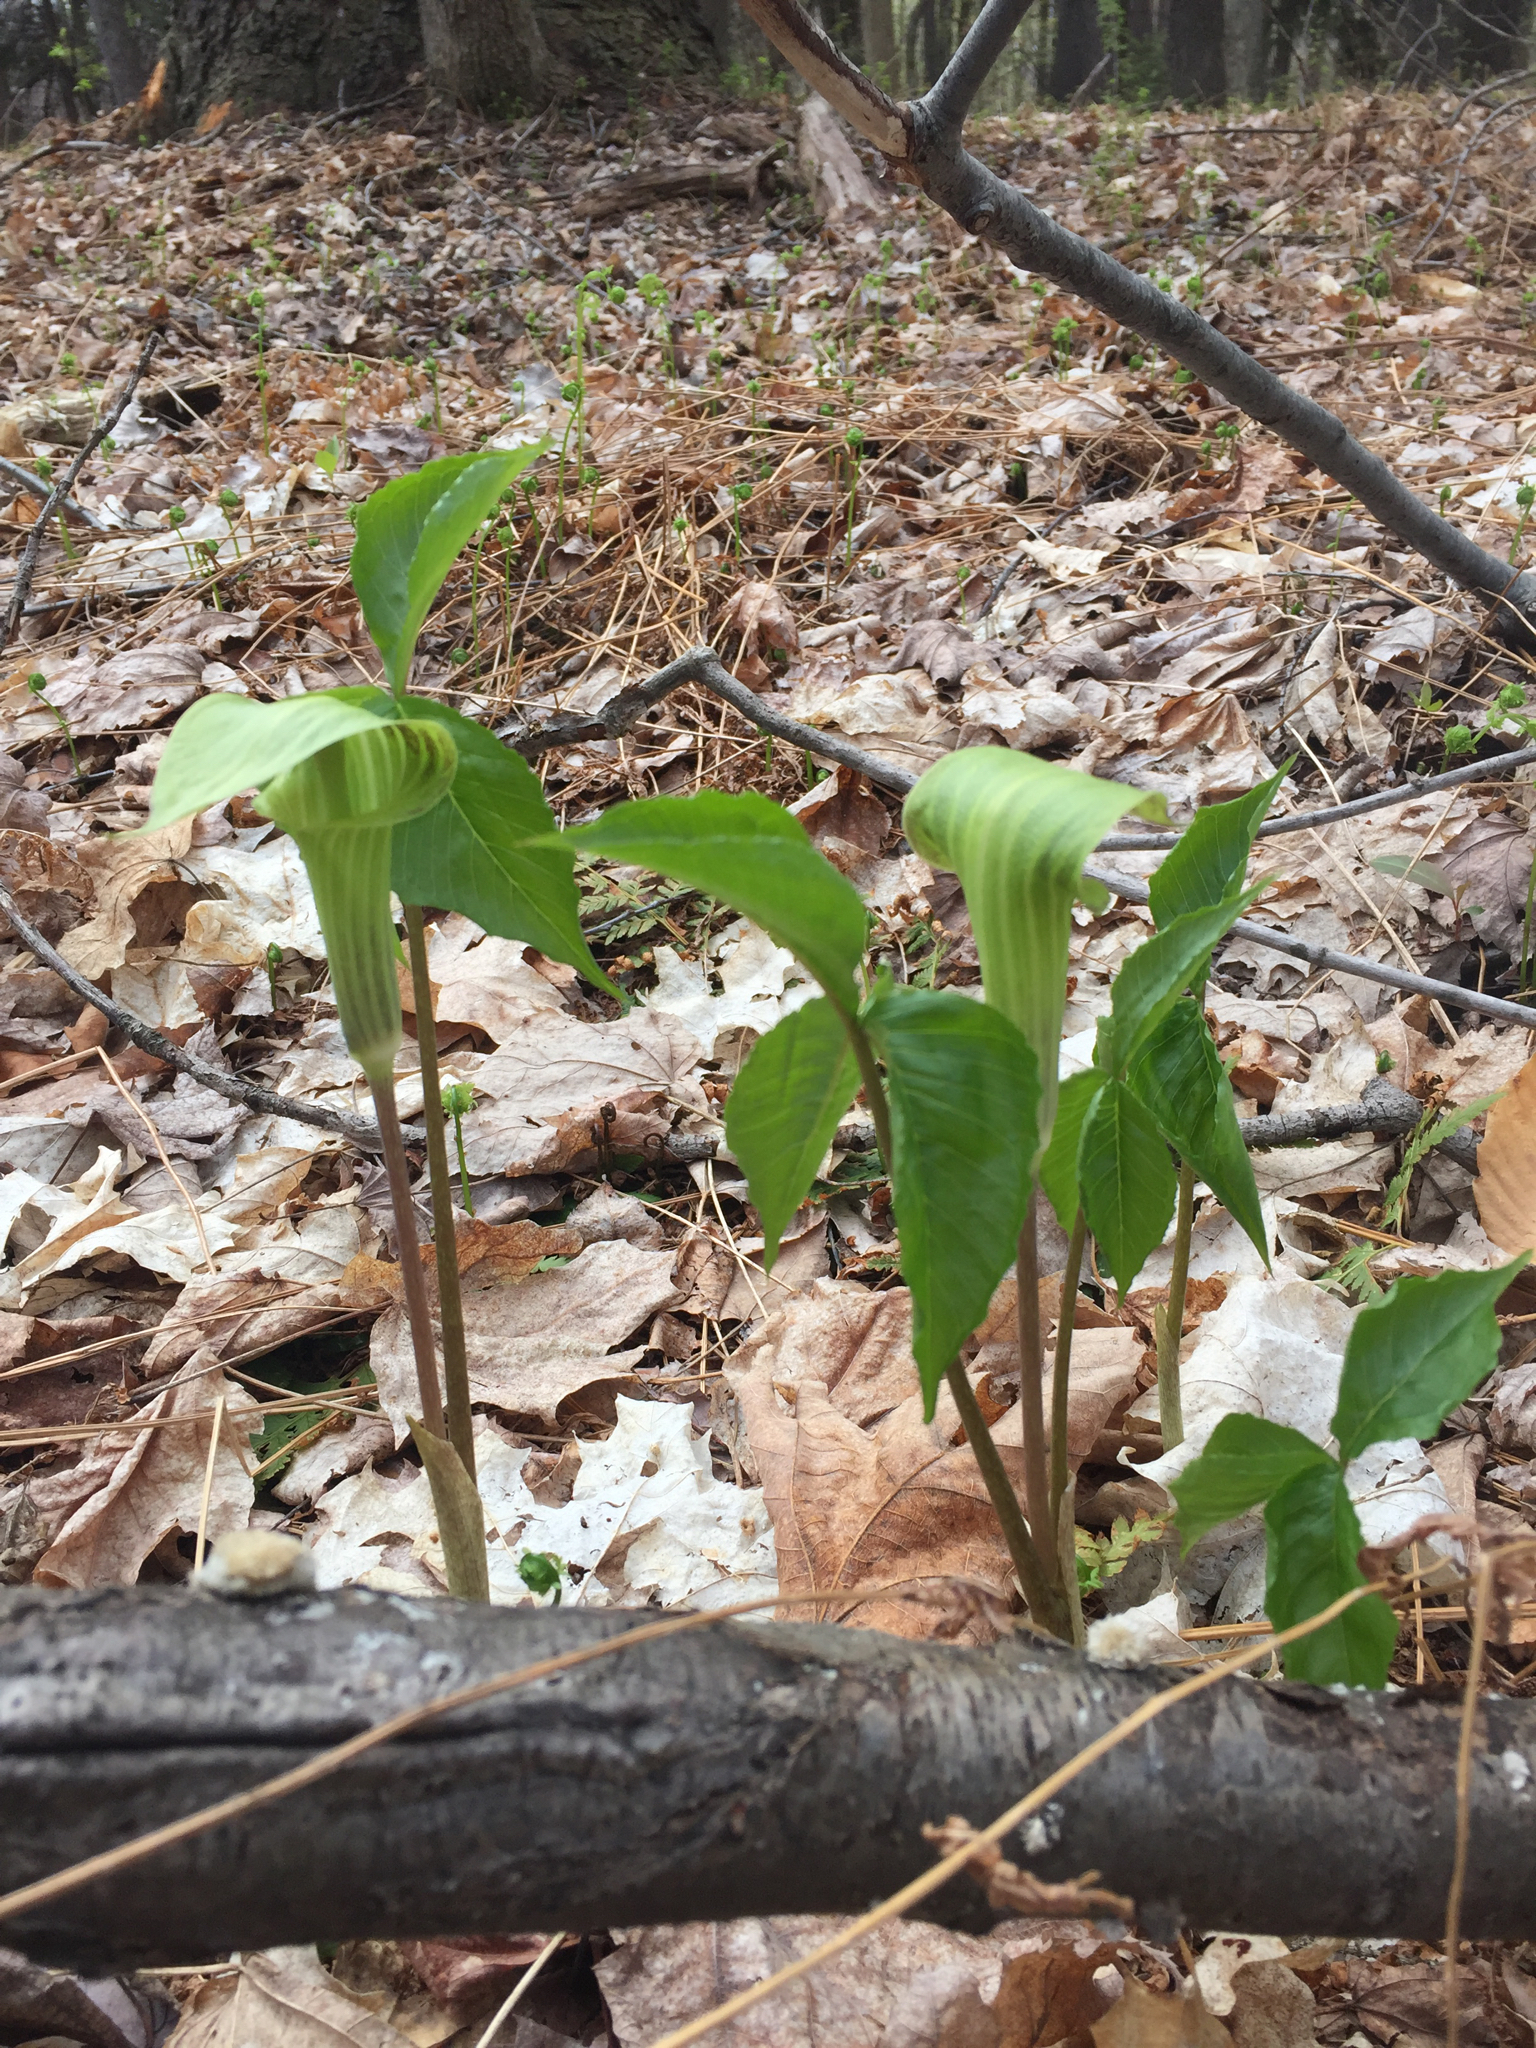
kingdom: Plantae
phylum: Tracheophyta
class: Liliopsida
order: Alismatales
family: Araceae
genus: Arisaema
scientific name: Arisaema triphyllum
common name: Jack-in-the-pulpit
